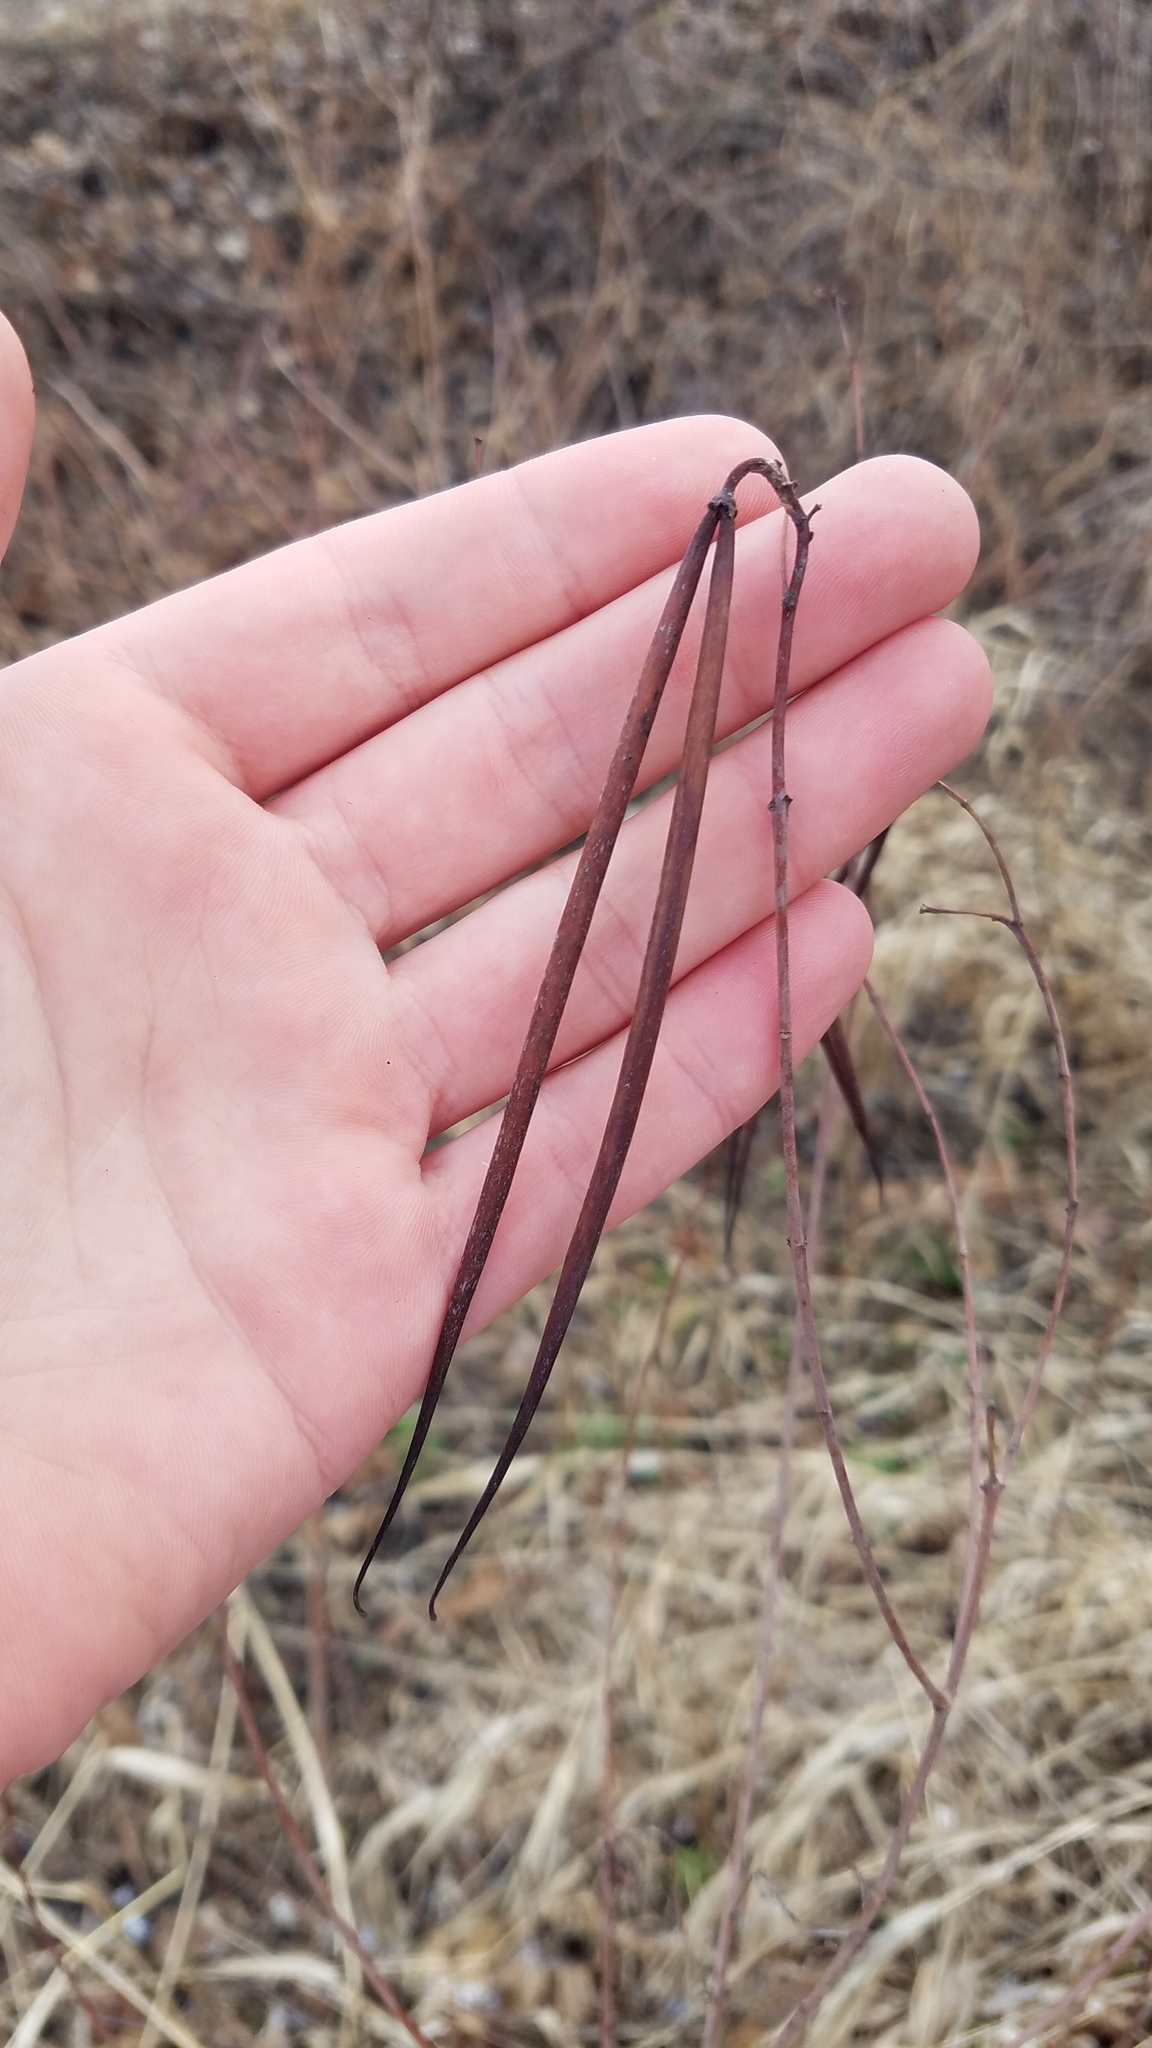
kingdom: Plantae
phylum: Tracheophyta
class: Magnoliopsida
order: Gentianales
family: Apocynaceae
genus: Apocynum
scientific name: Apocynum cannabinum
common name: Hemp dogbane
